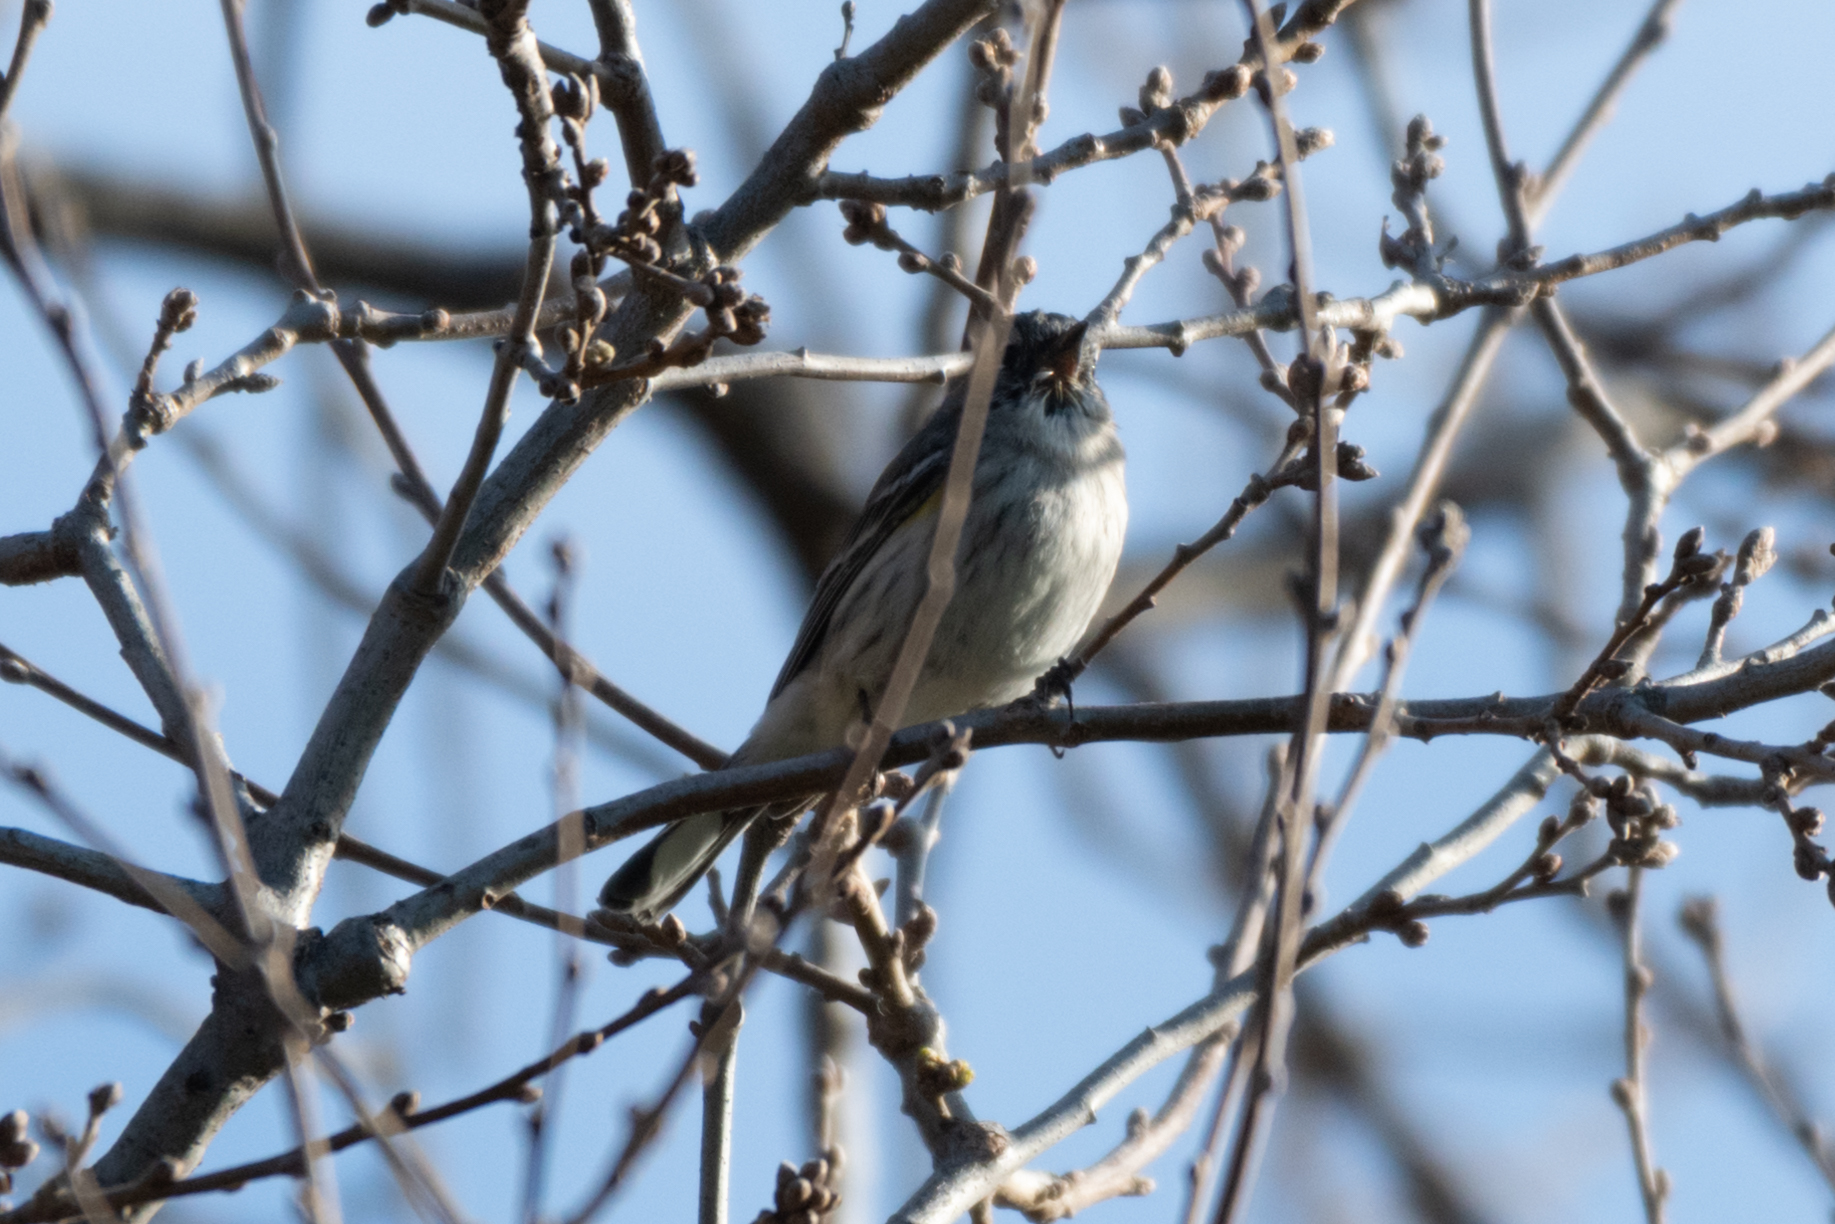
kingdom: Animalia
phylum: Chordata
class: Aves
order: Passeriformes
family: Parulidae
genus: Setophaga
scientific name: Setophaga coronata
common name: Myrtle warbler
